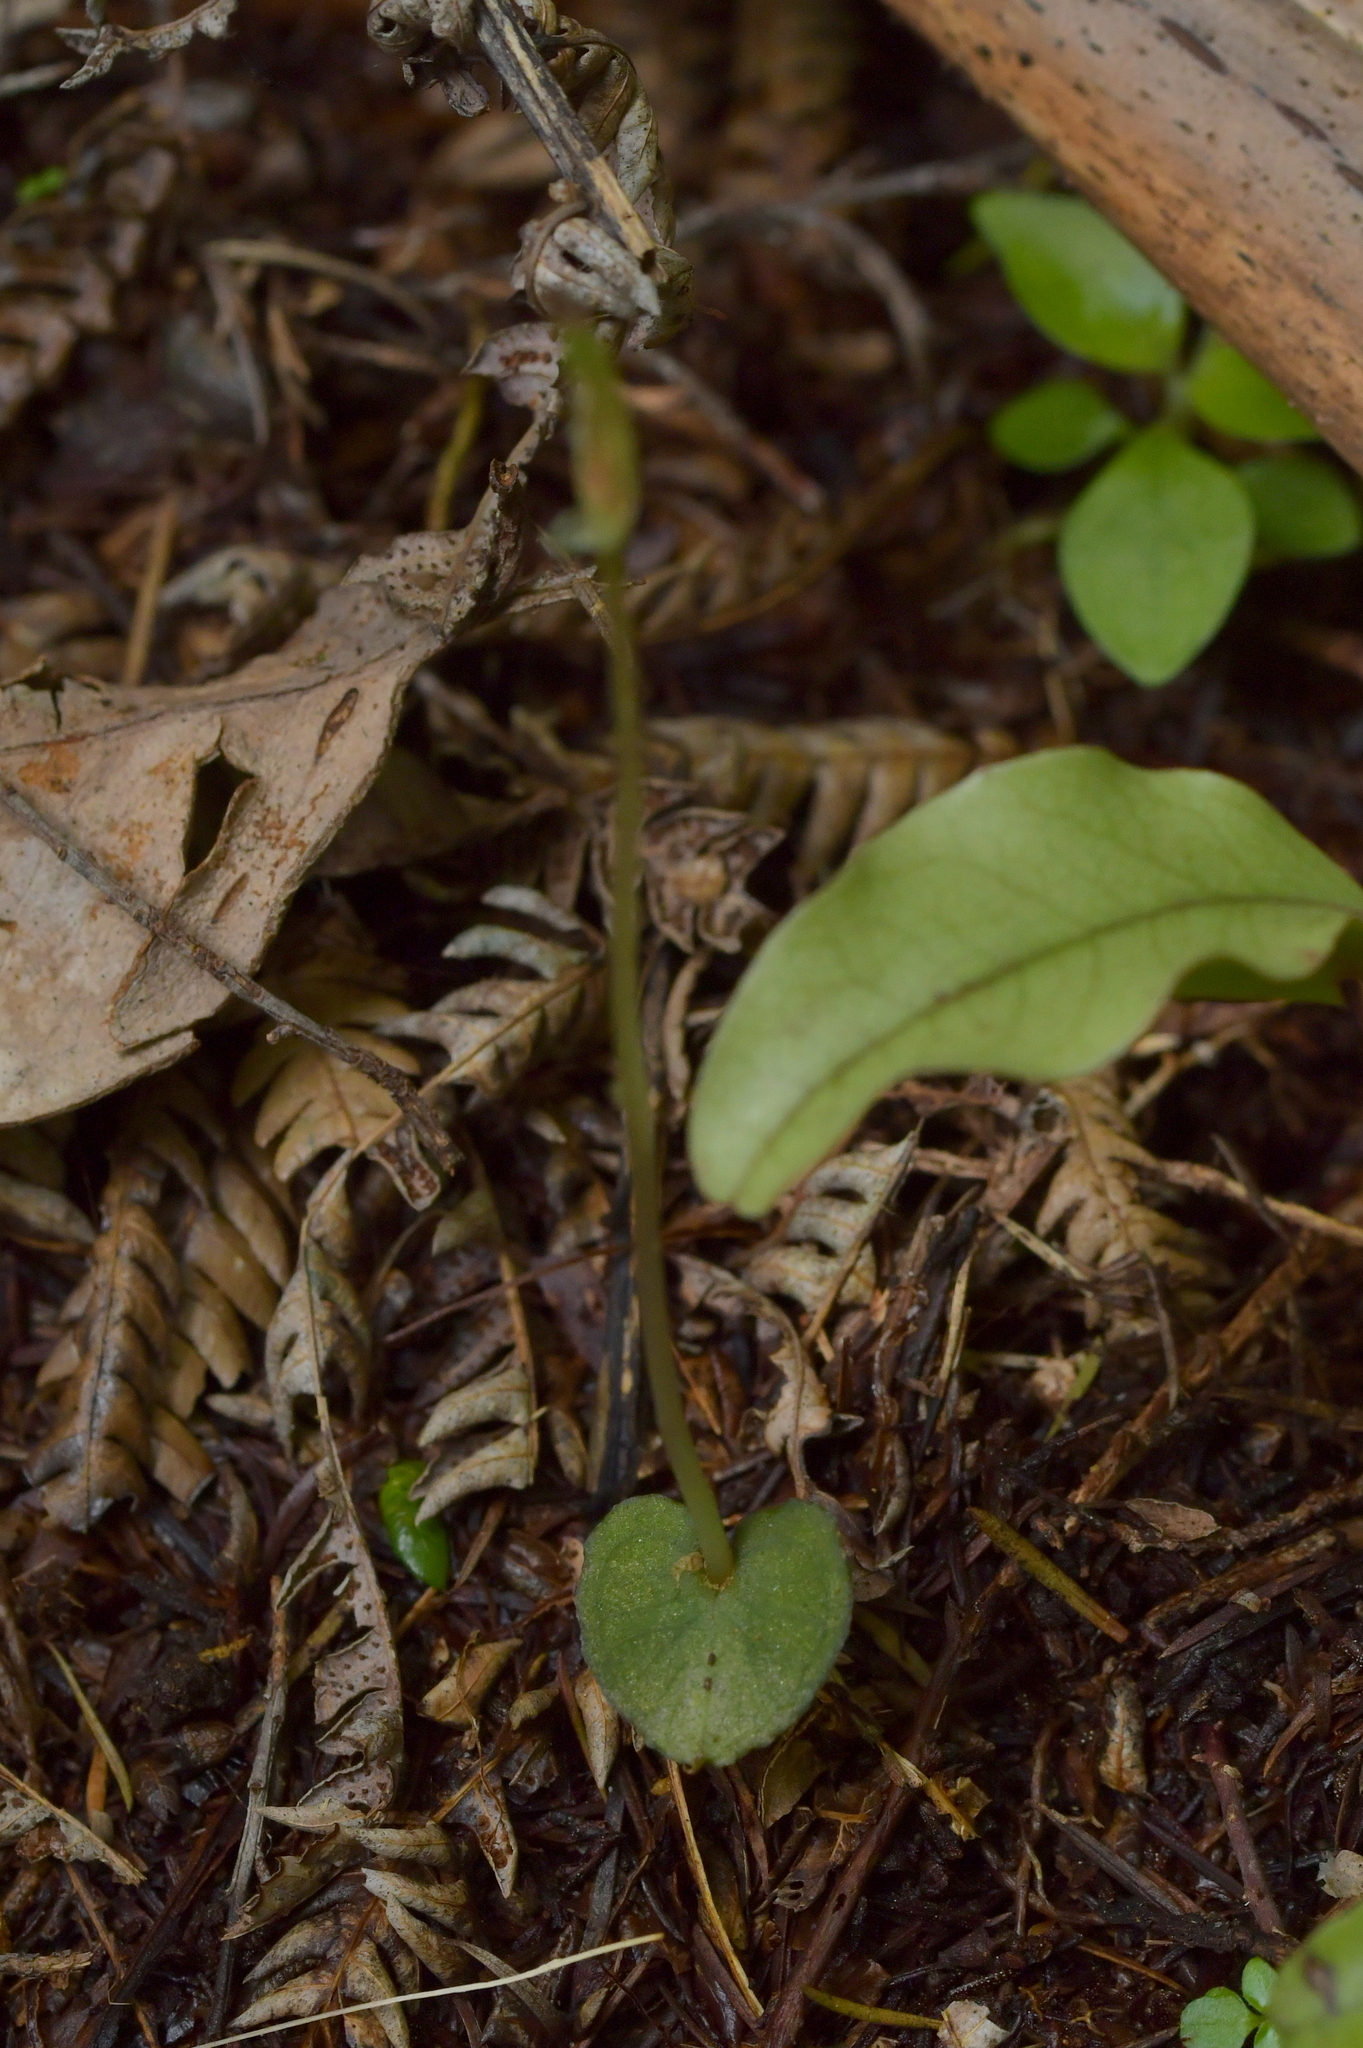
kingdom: Plantae
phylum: Tracheophyta
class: Liliopsida
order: Asparagales
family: Orchidaceae
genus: Corybas
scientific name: Corybas cheesemanii
